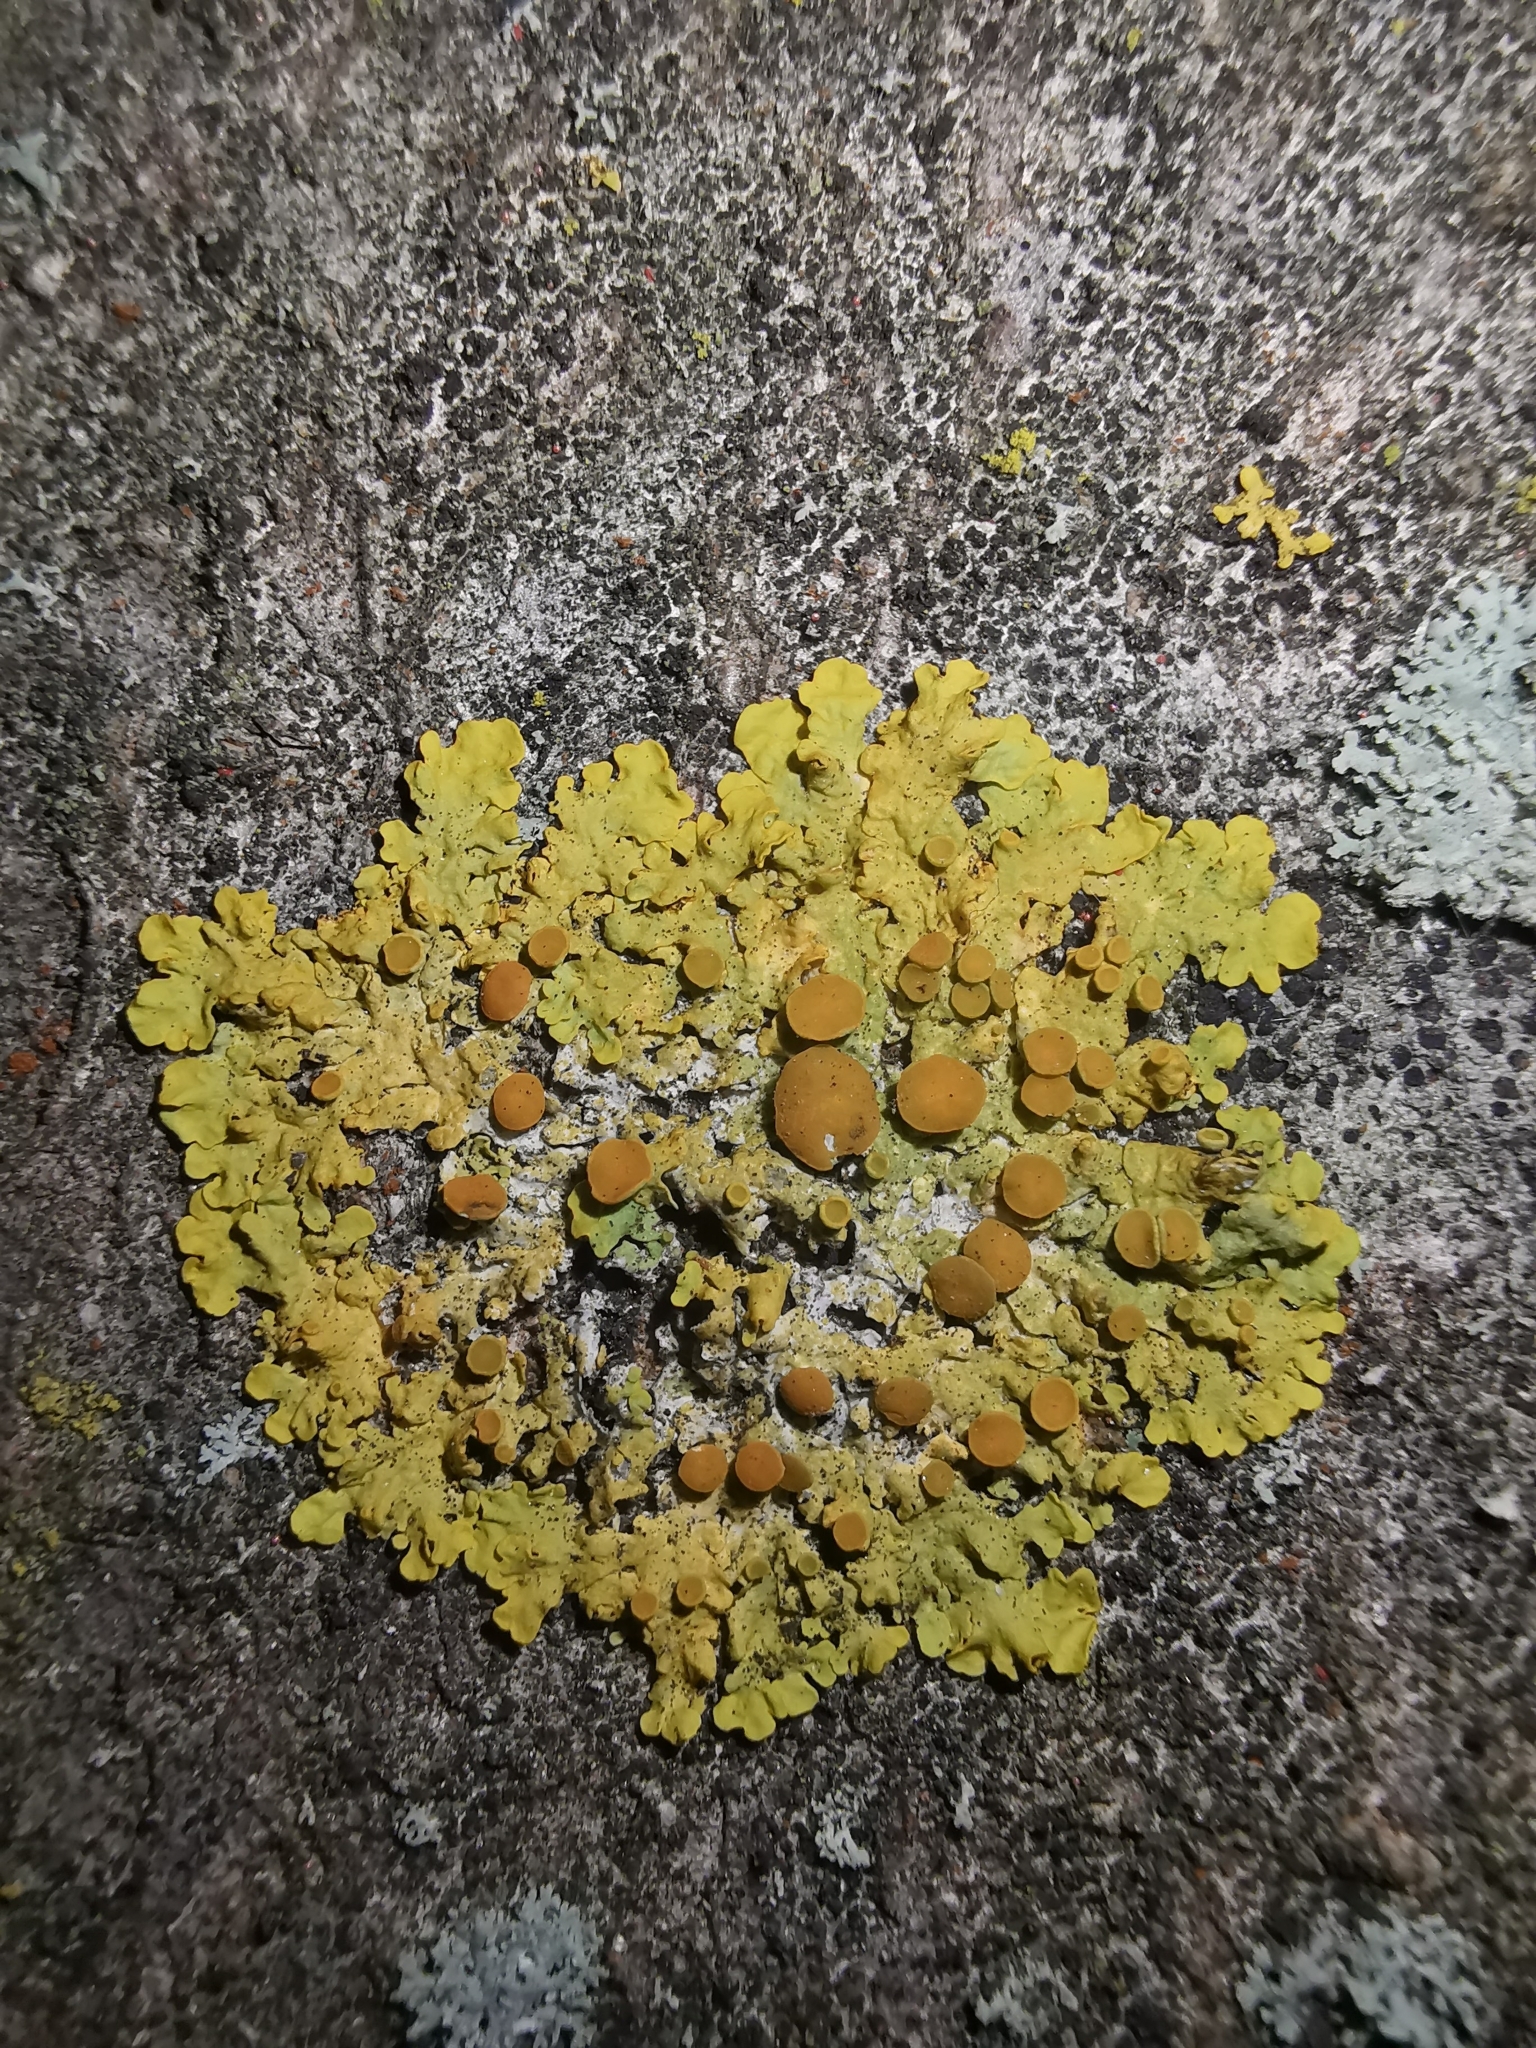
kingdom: Fungi
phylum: Ascomycota
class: Lecanoromycetes
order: Teloschistales
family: Teloschistaceae
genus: Xanthoria
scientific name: Xanthoria parietina
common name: Common orange lichen
